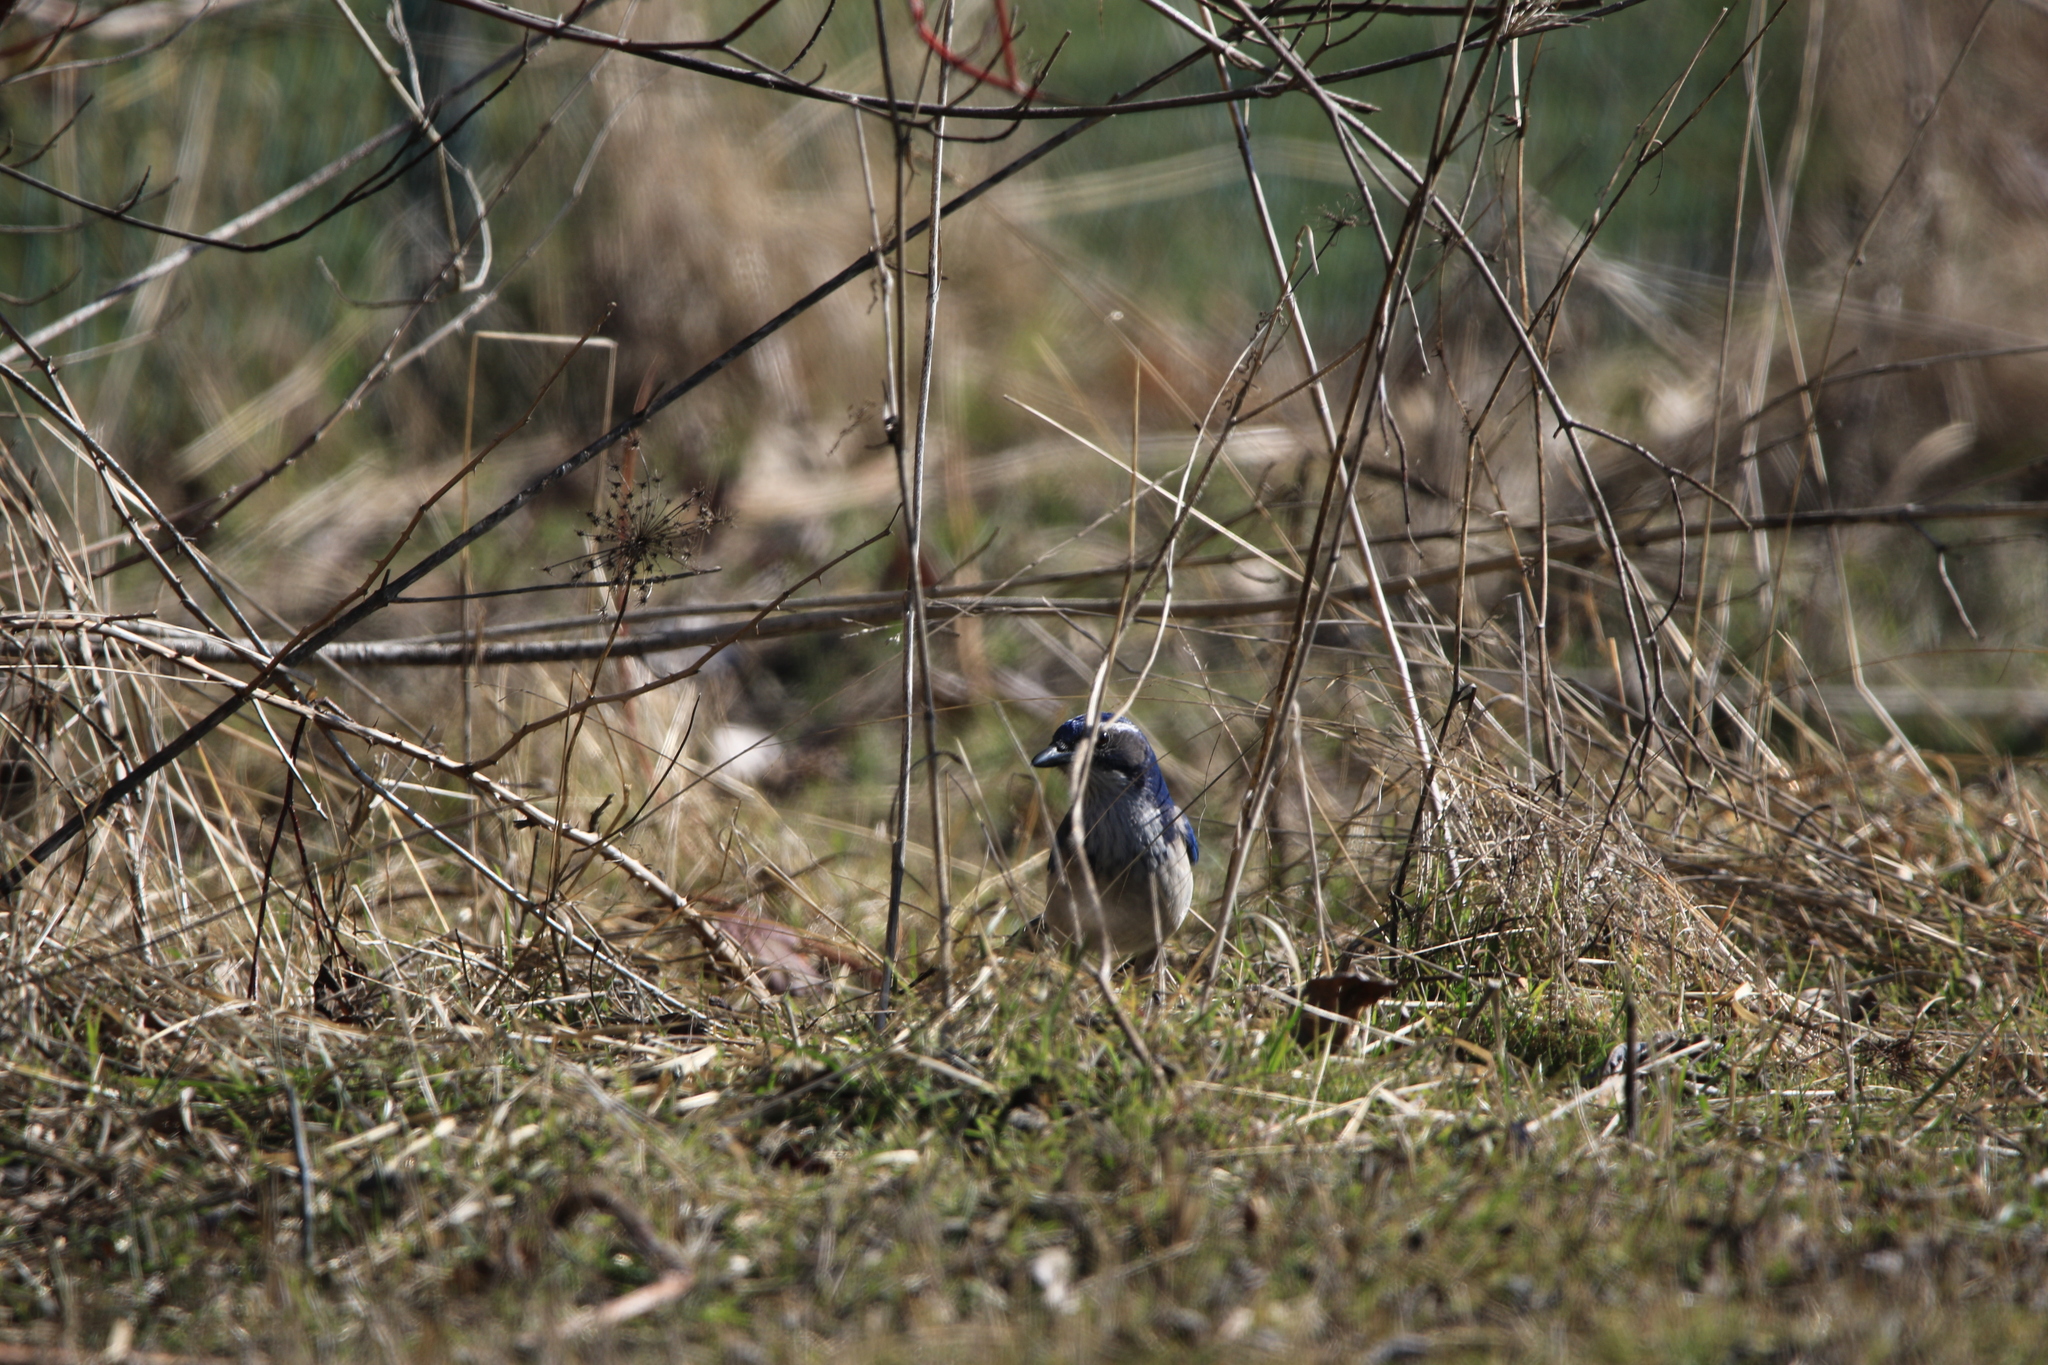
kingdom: Animalia
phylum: Chordata
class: Aves
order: Passeriformes
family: Corvidae
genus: Aphelocoma
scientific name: Aphelocoma californica
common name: California scrub-jay
